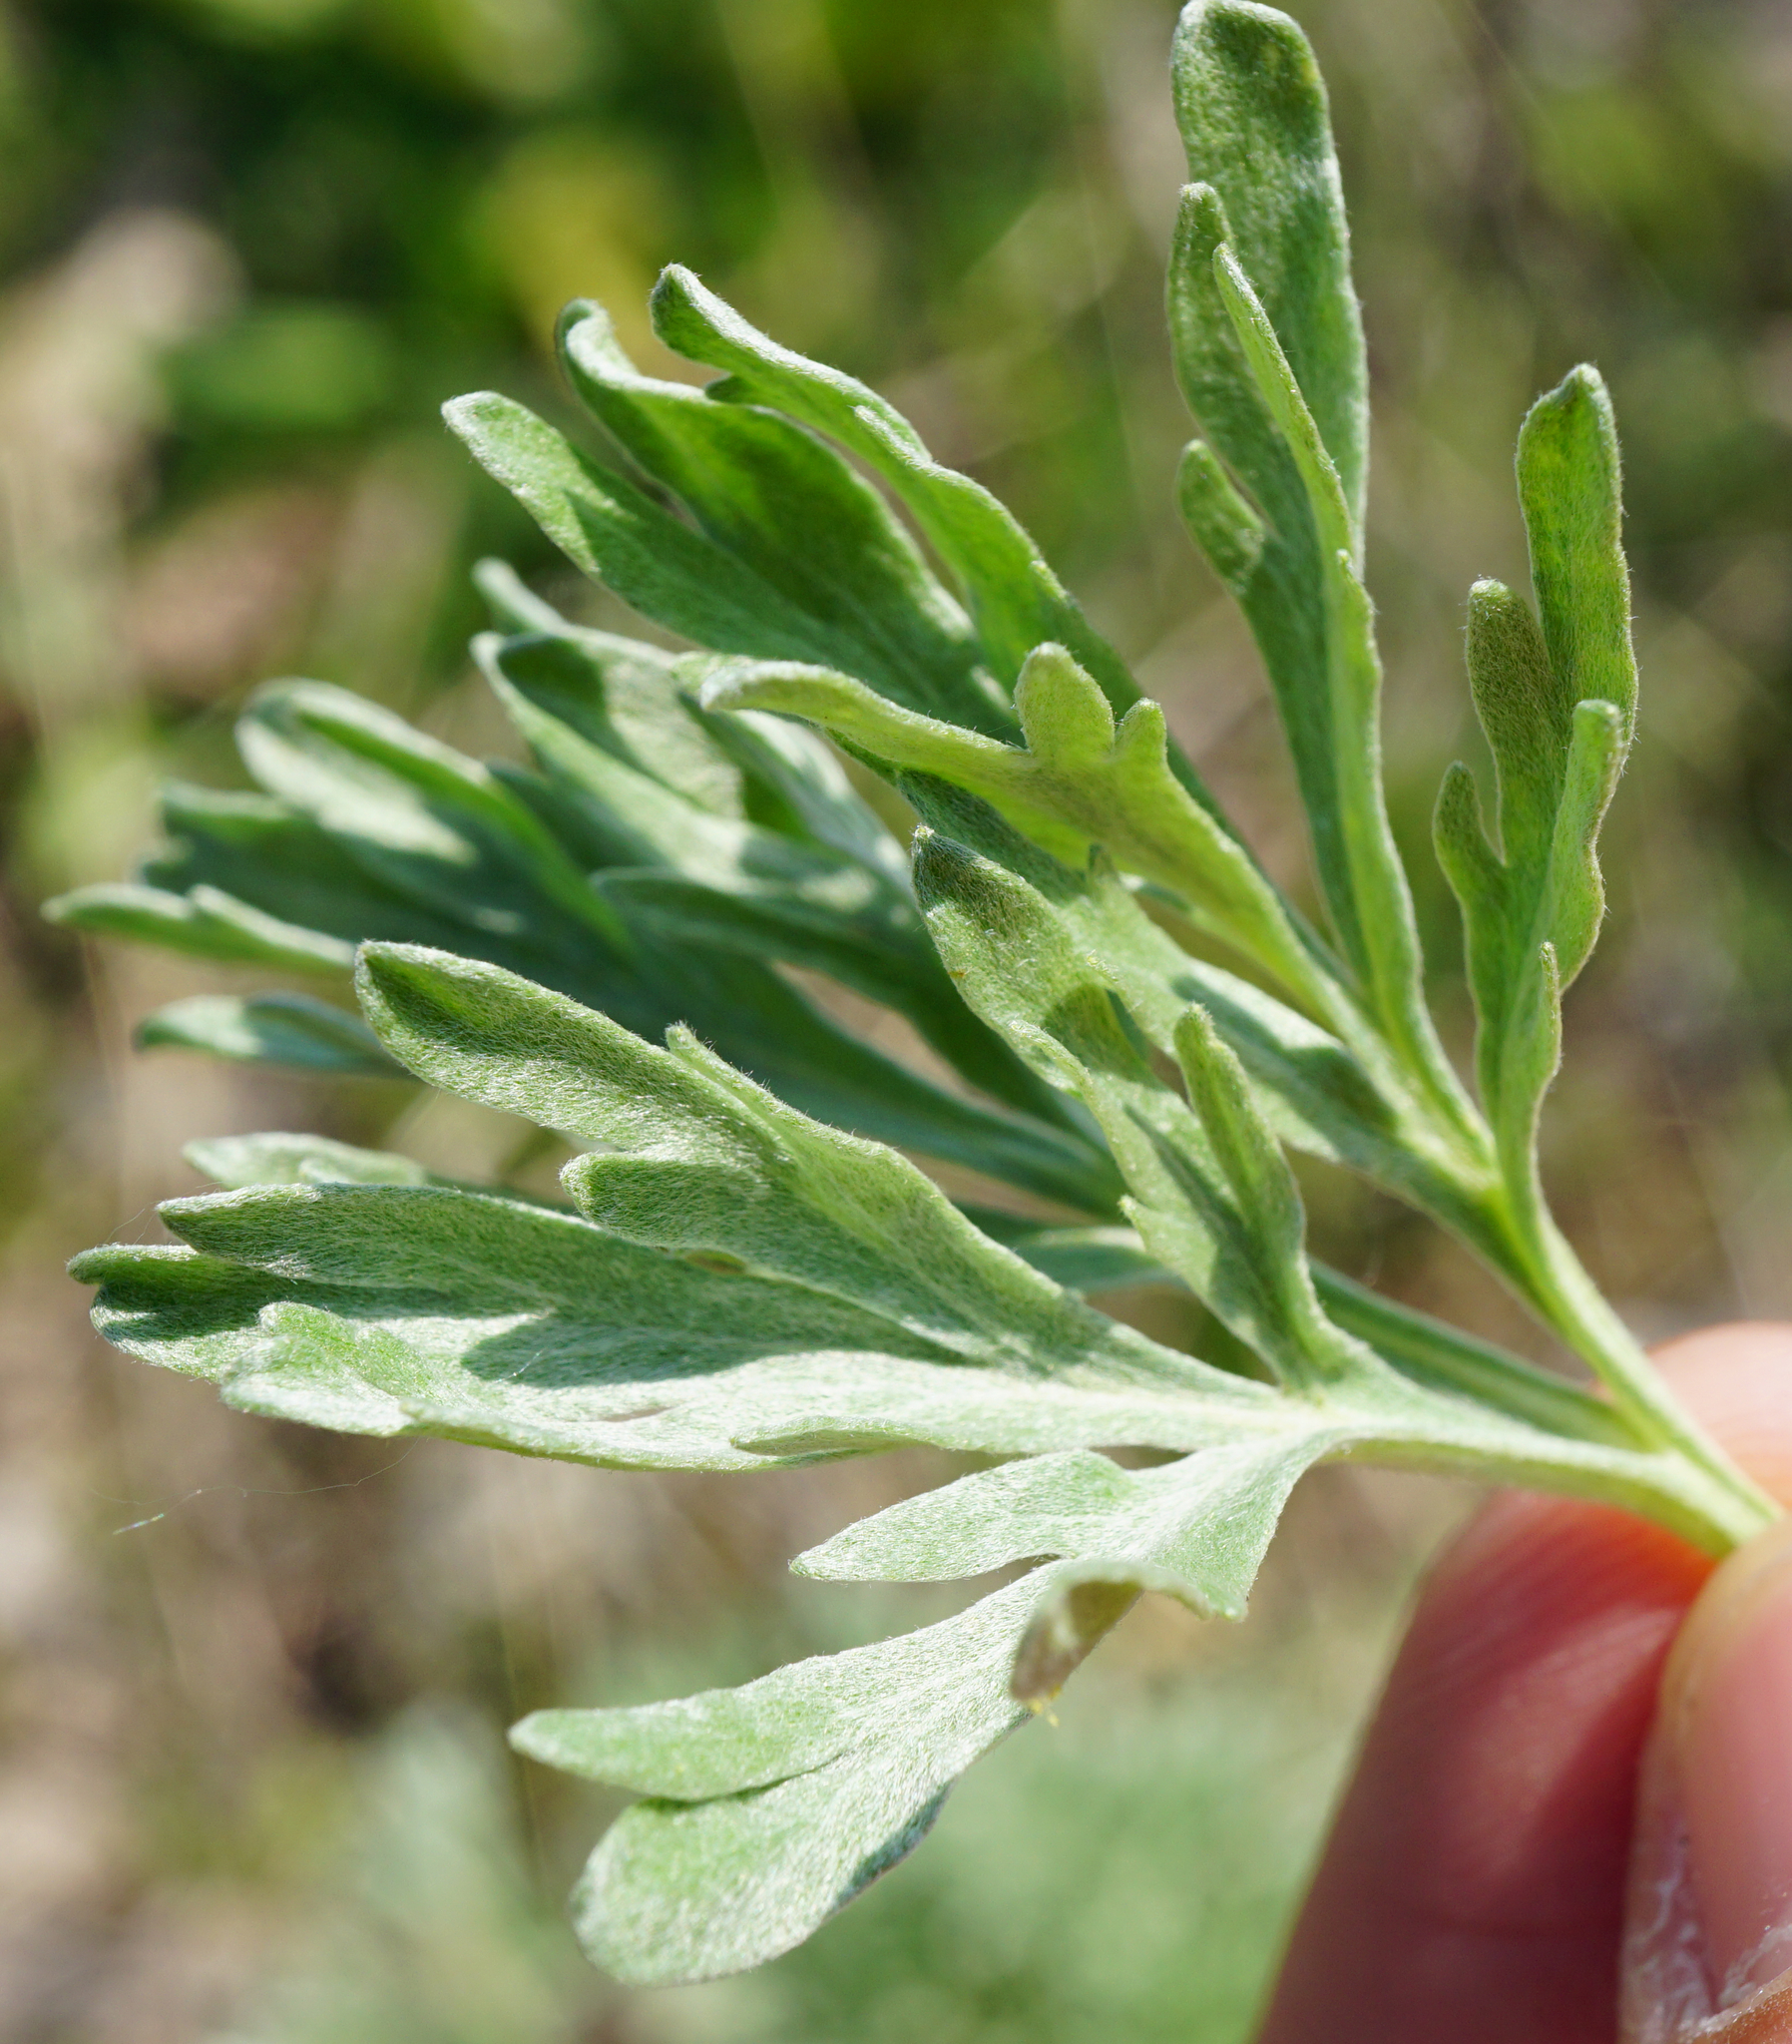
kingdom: Plantae
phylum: Tracheophyta
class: Magnoliopsida
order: Asterales
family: Asteraceae
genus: Artemisia
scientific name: Artemisia absinthium
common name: Wormwood
